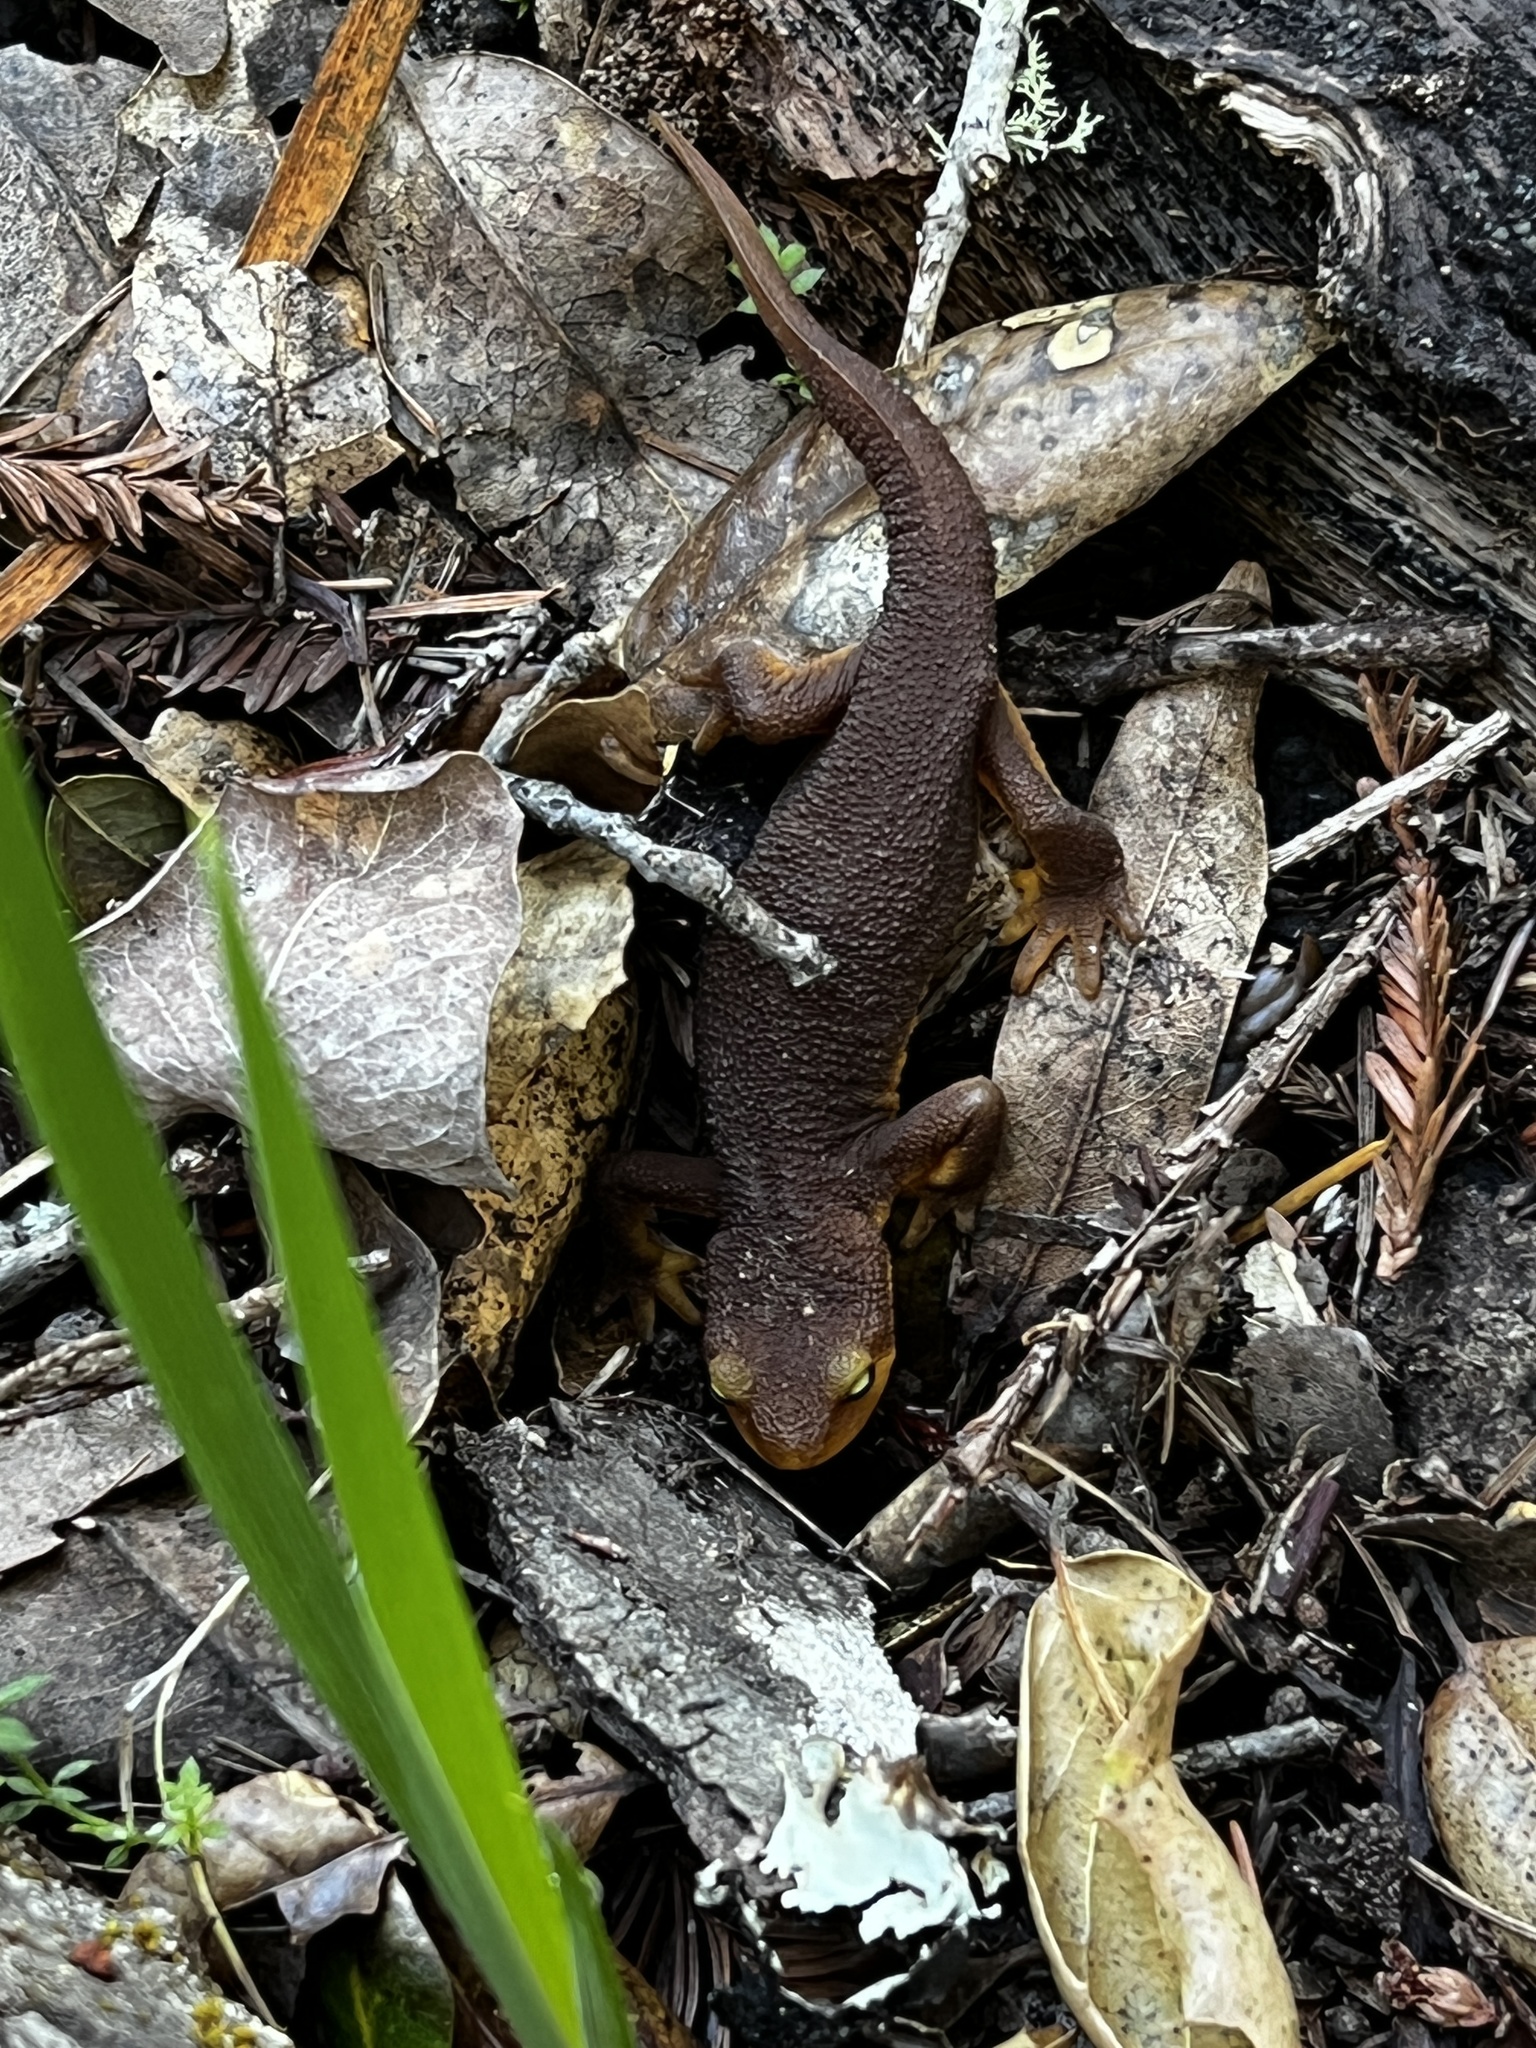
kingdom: Animalia
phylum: Chordata
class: Amphibia
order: Caudata
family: Salamandridae
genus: Taricha
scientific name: Taricha torosa
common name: California newt
